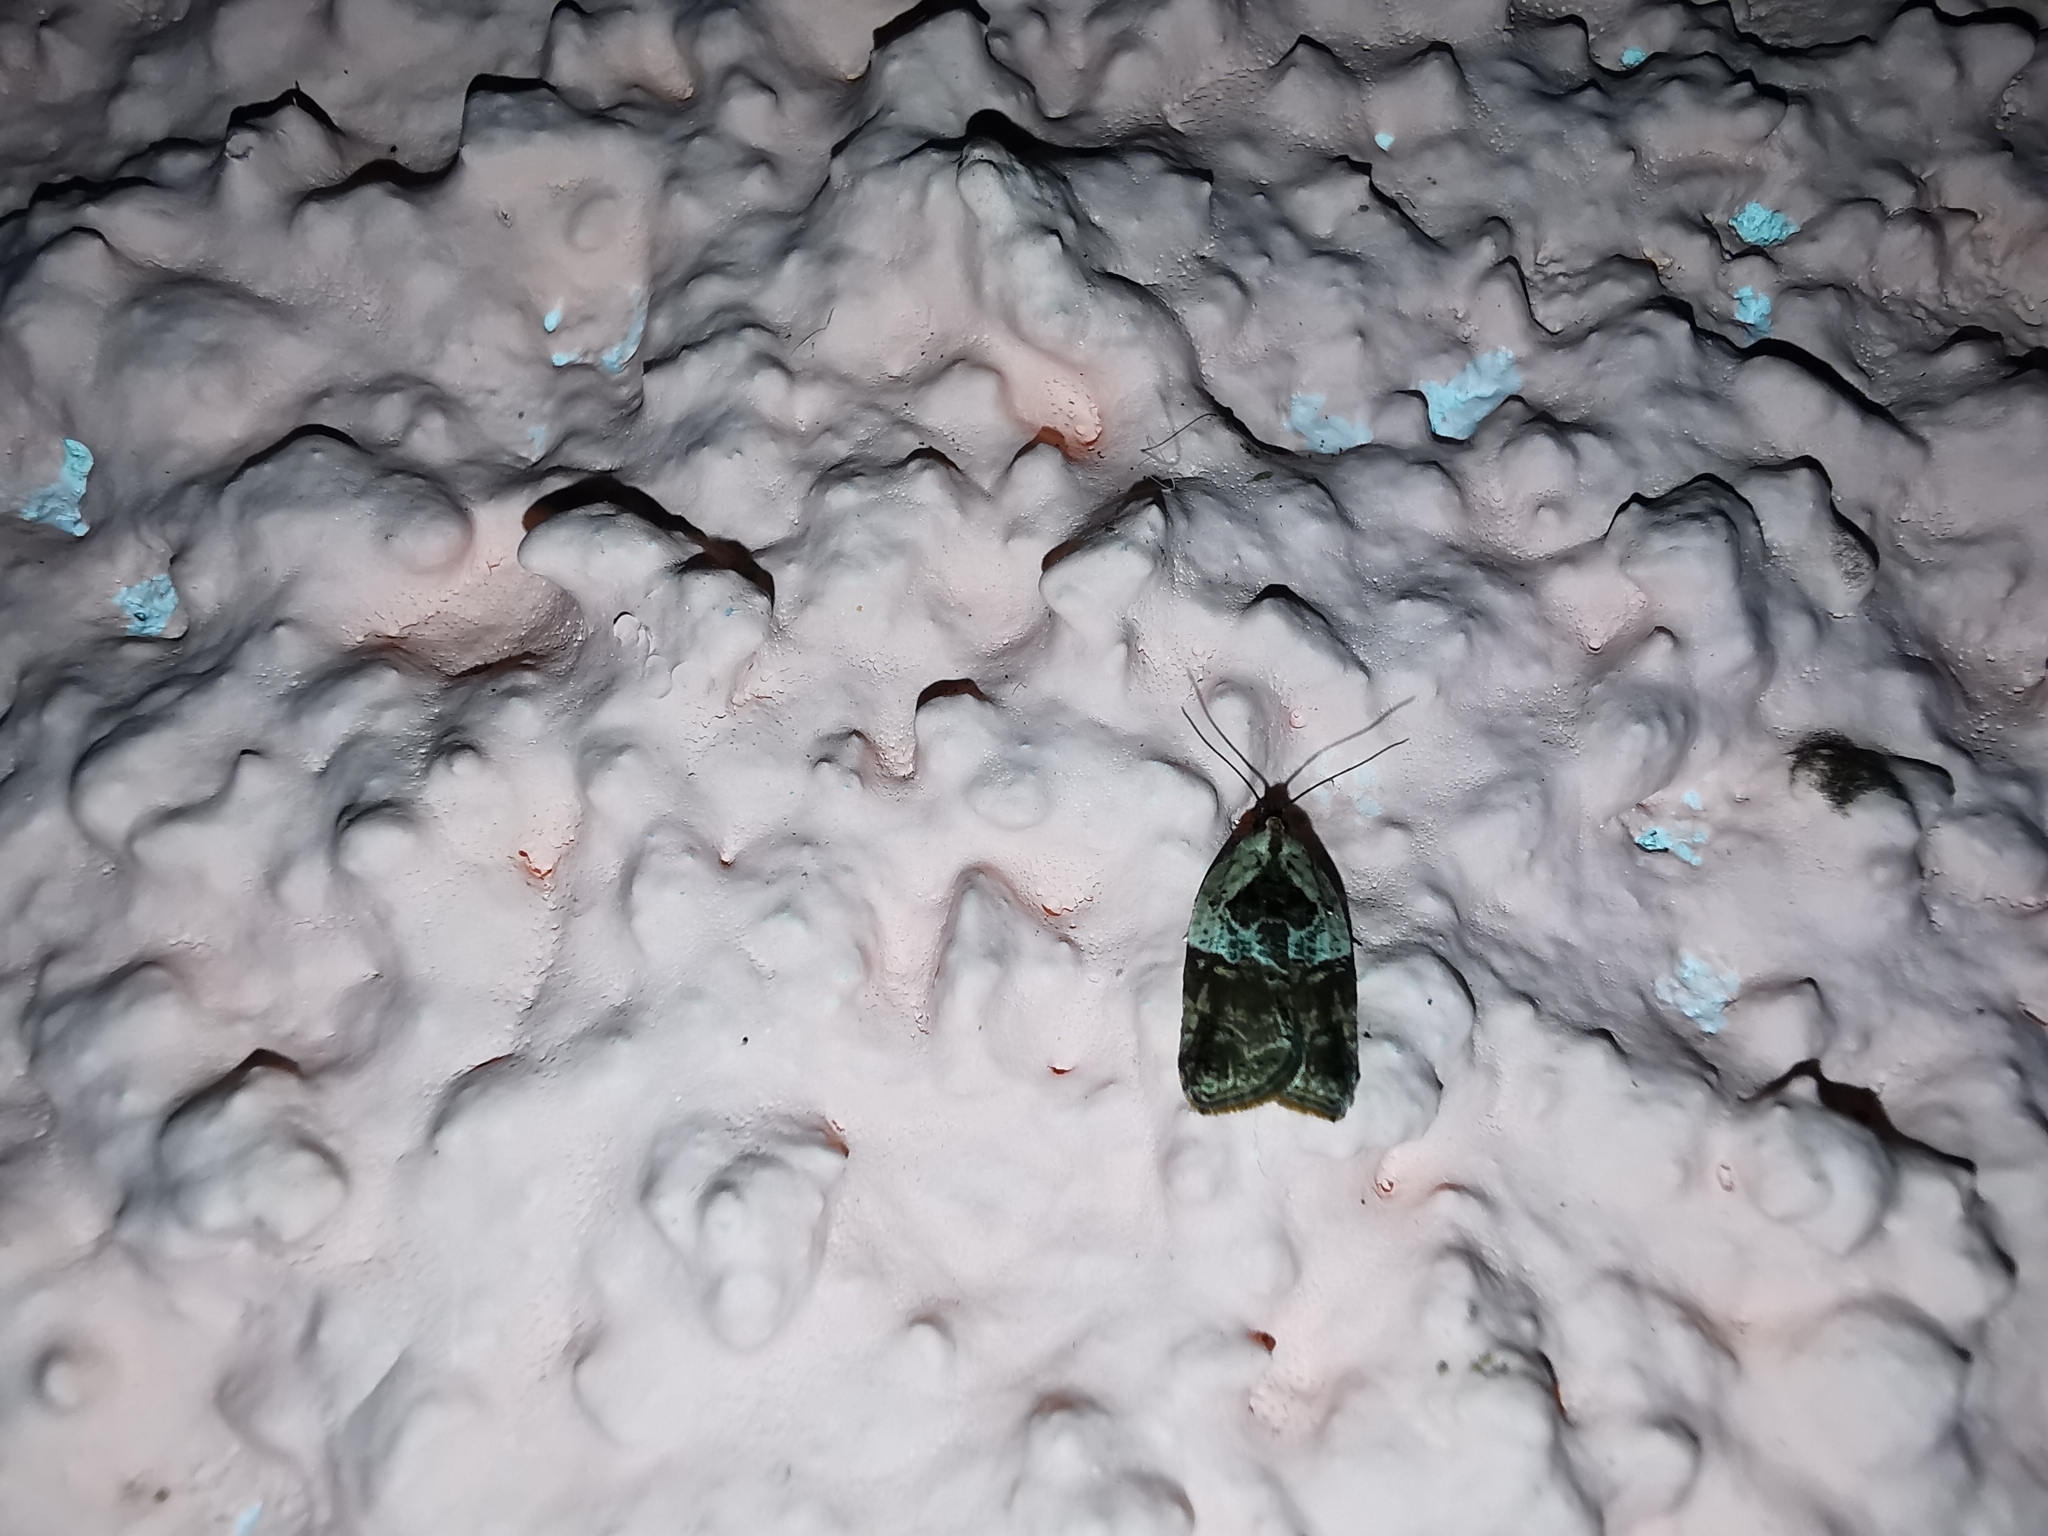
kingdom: Animalia
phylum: Arthropoda
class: Insecta
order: Lepidoptera
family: Tortricidae
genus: Acleris
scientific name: Acleris variegana
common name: Garden rose tortrix
